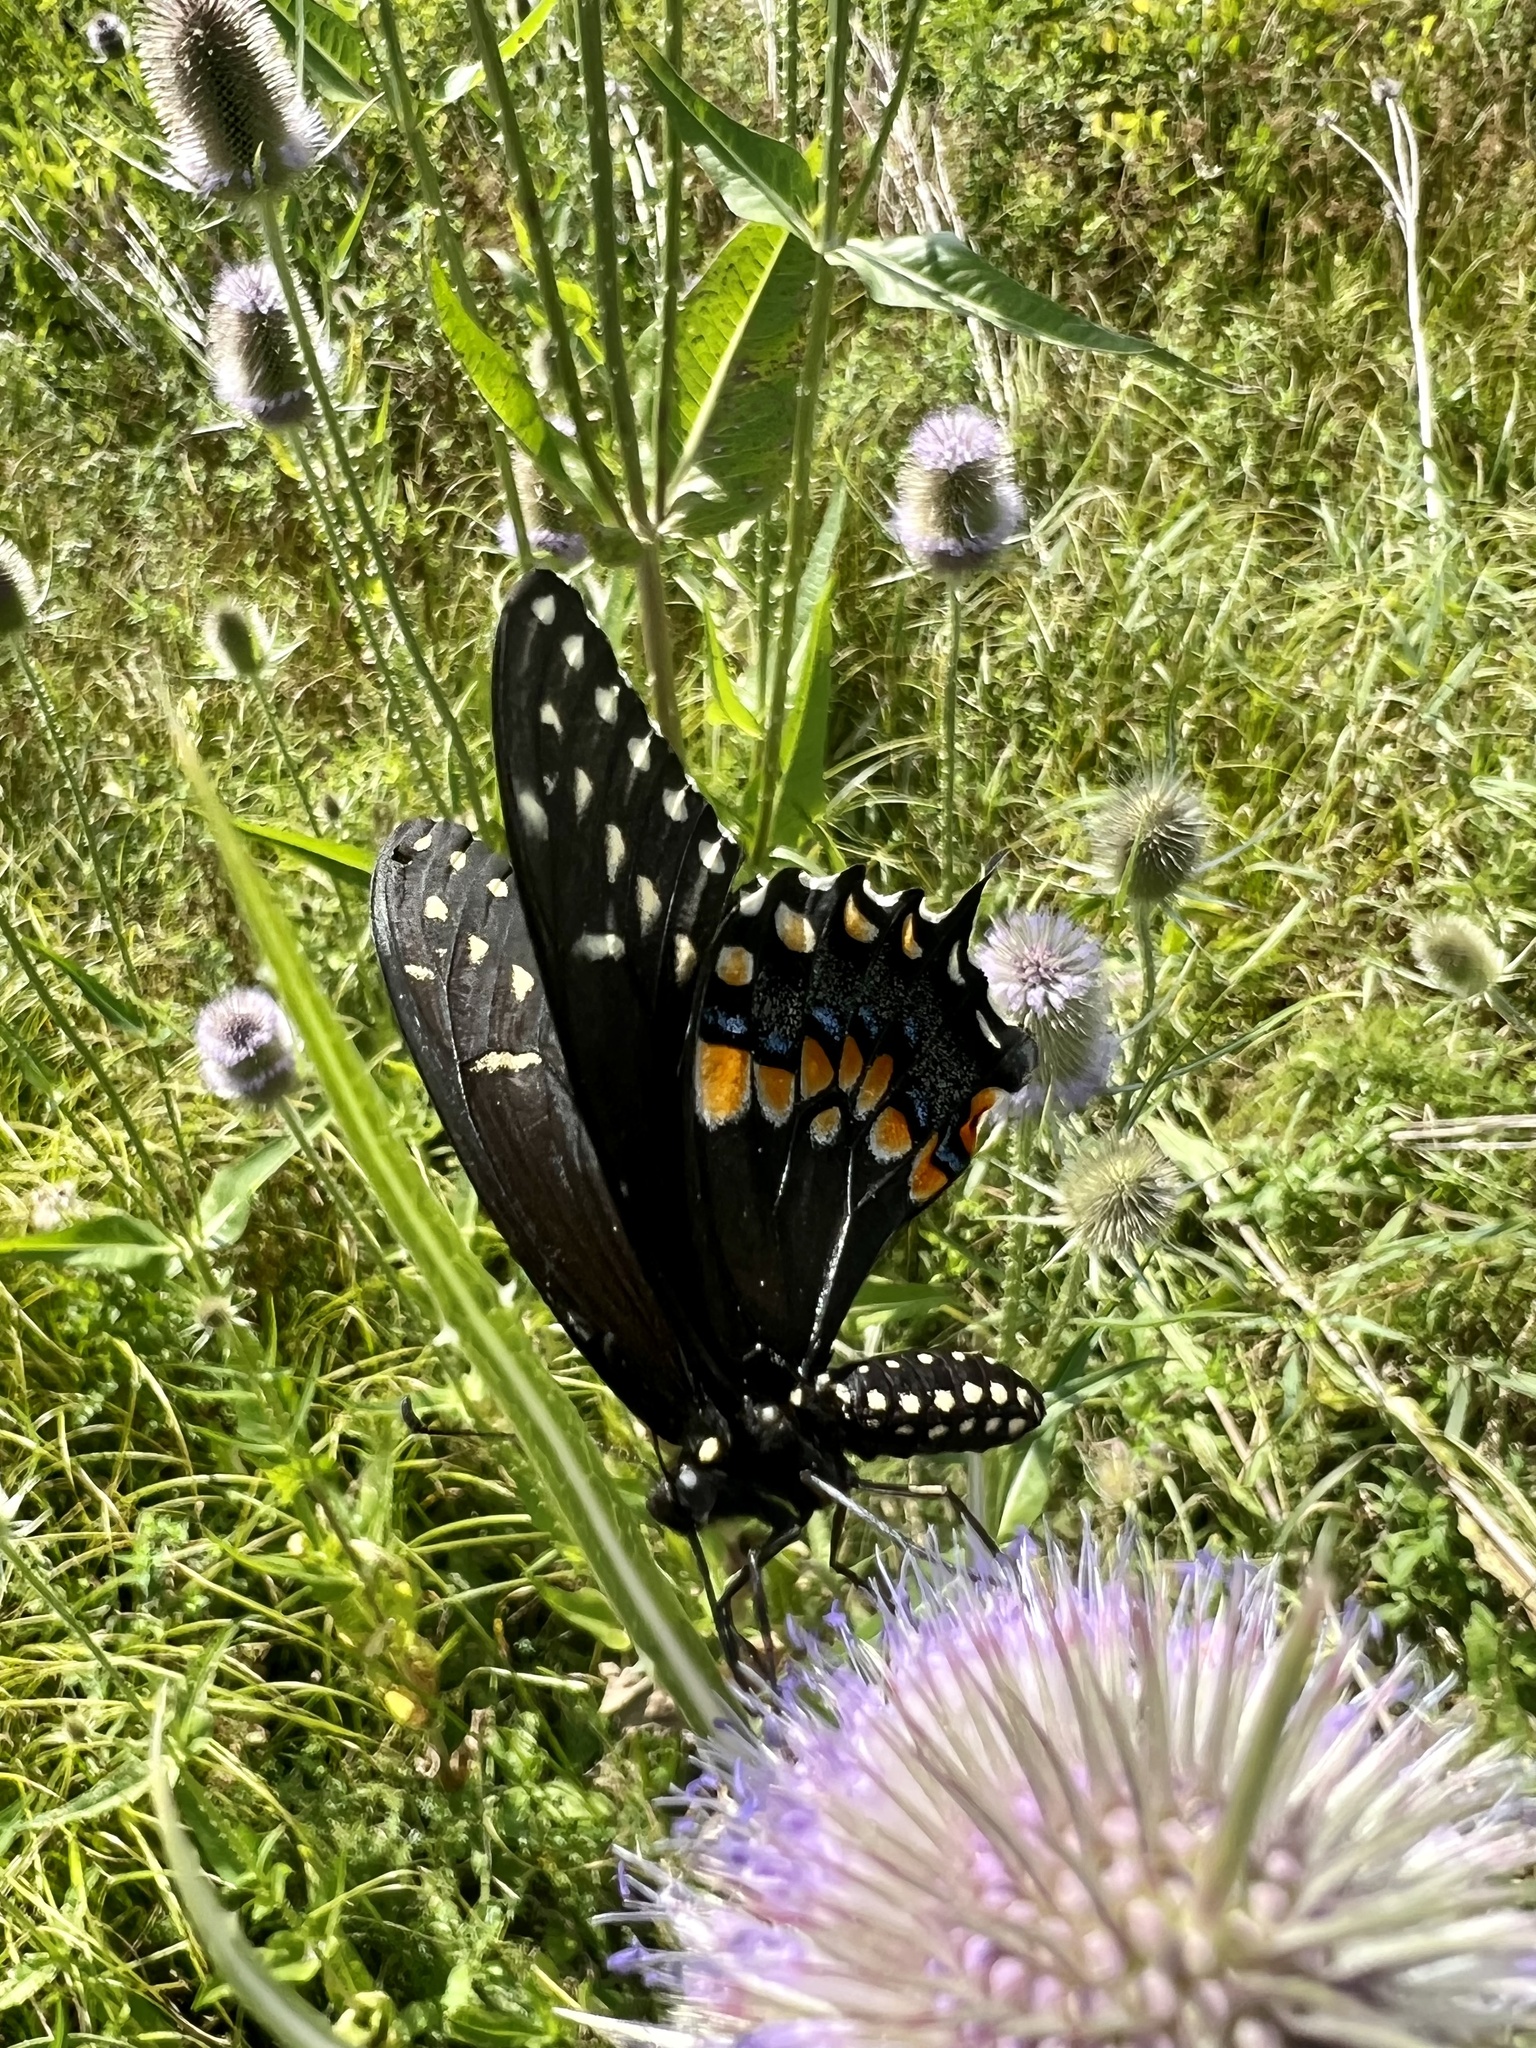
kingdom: Animalia
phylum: Arthropoda
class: Insecta
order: Lepidoptera
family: Papilionidae
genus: Papilio
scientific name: Papilio polyxenes
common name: Black swallowtail
